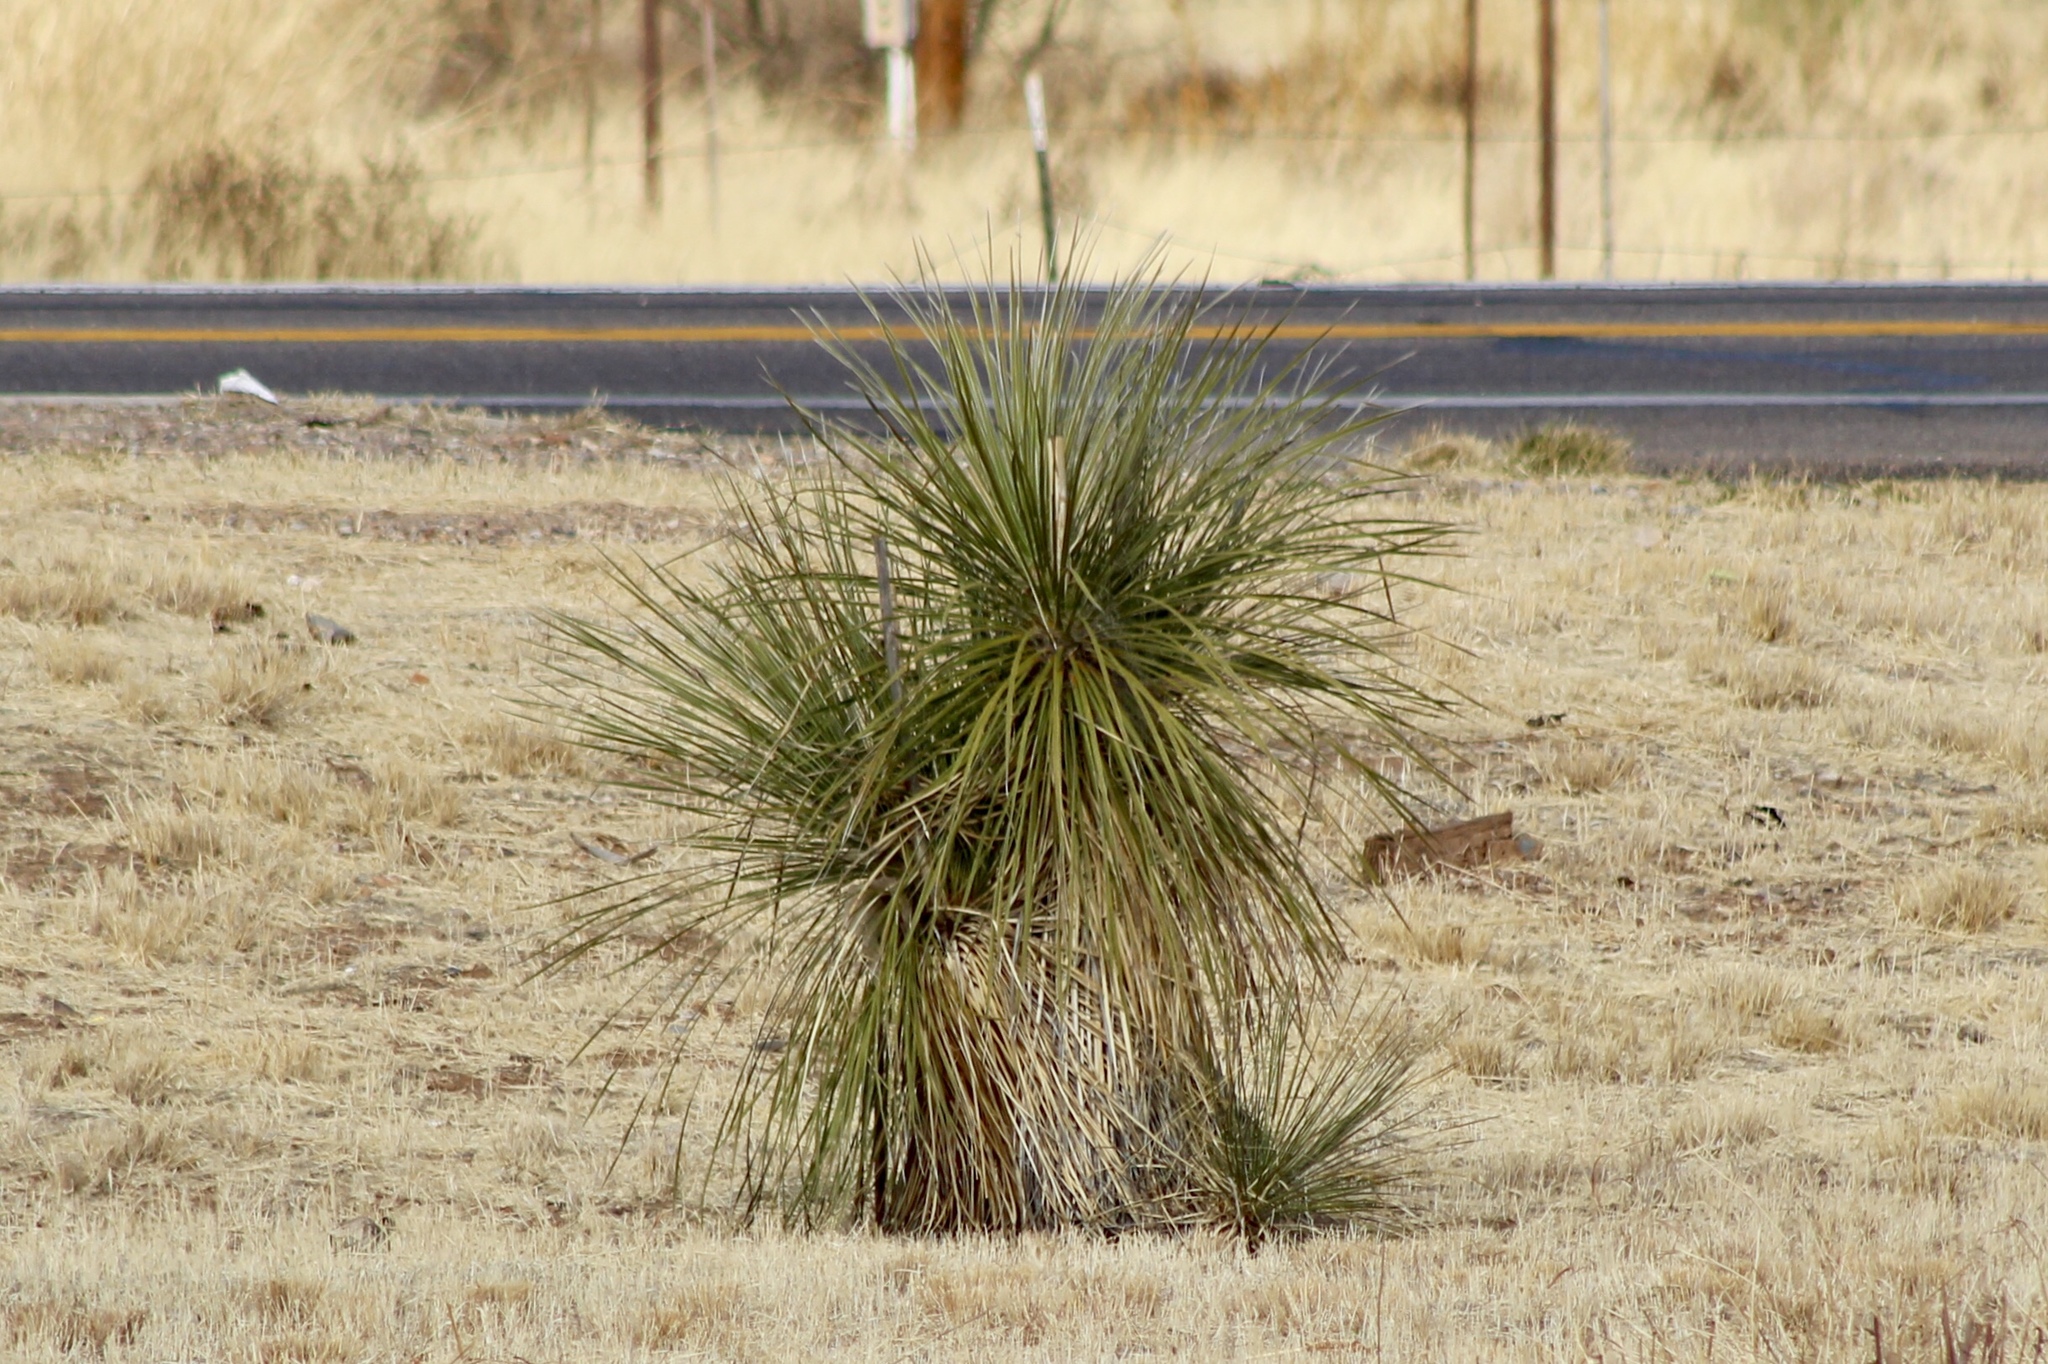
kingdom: Plantae
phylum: Tracheophyta
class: Liliopsida
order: Asparagales
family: Asparagaceae
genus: Yucca
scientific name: Yucca elata
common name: Palmella
